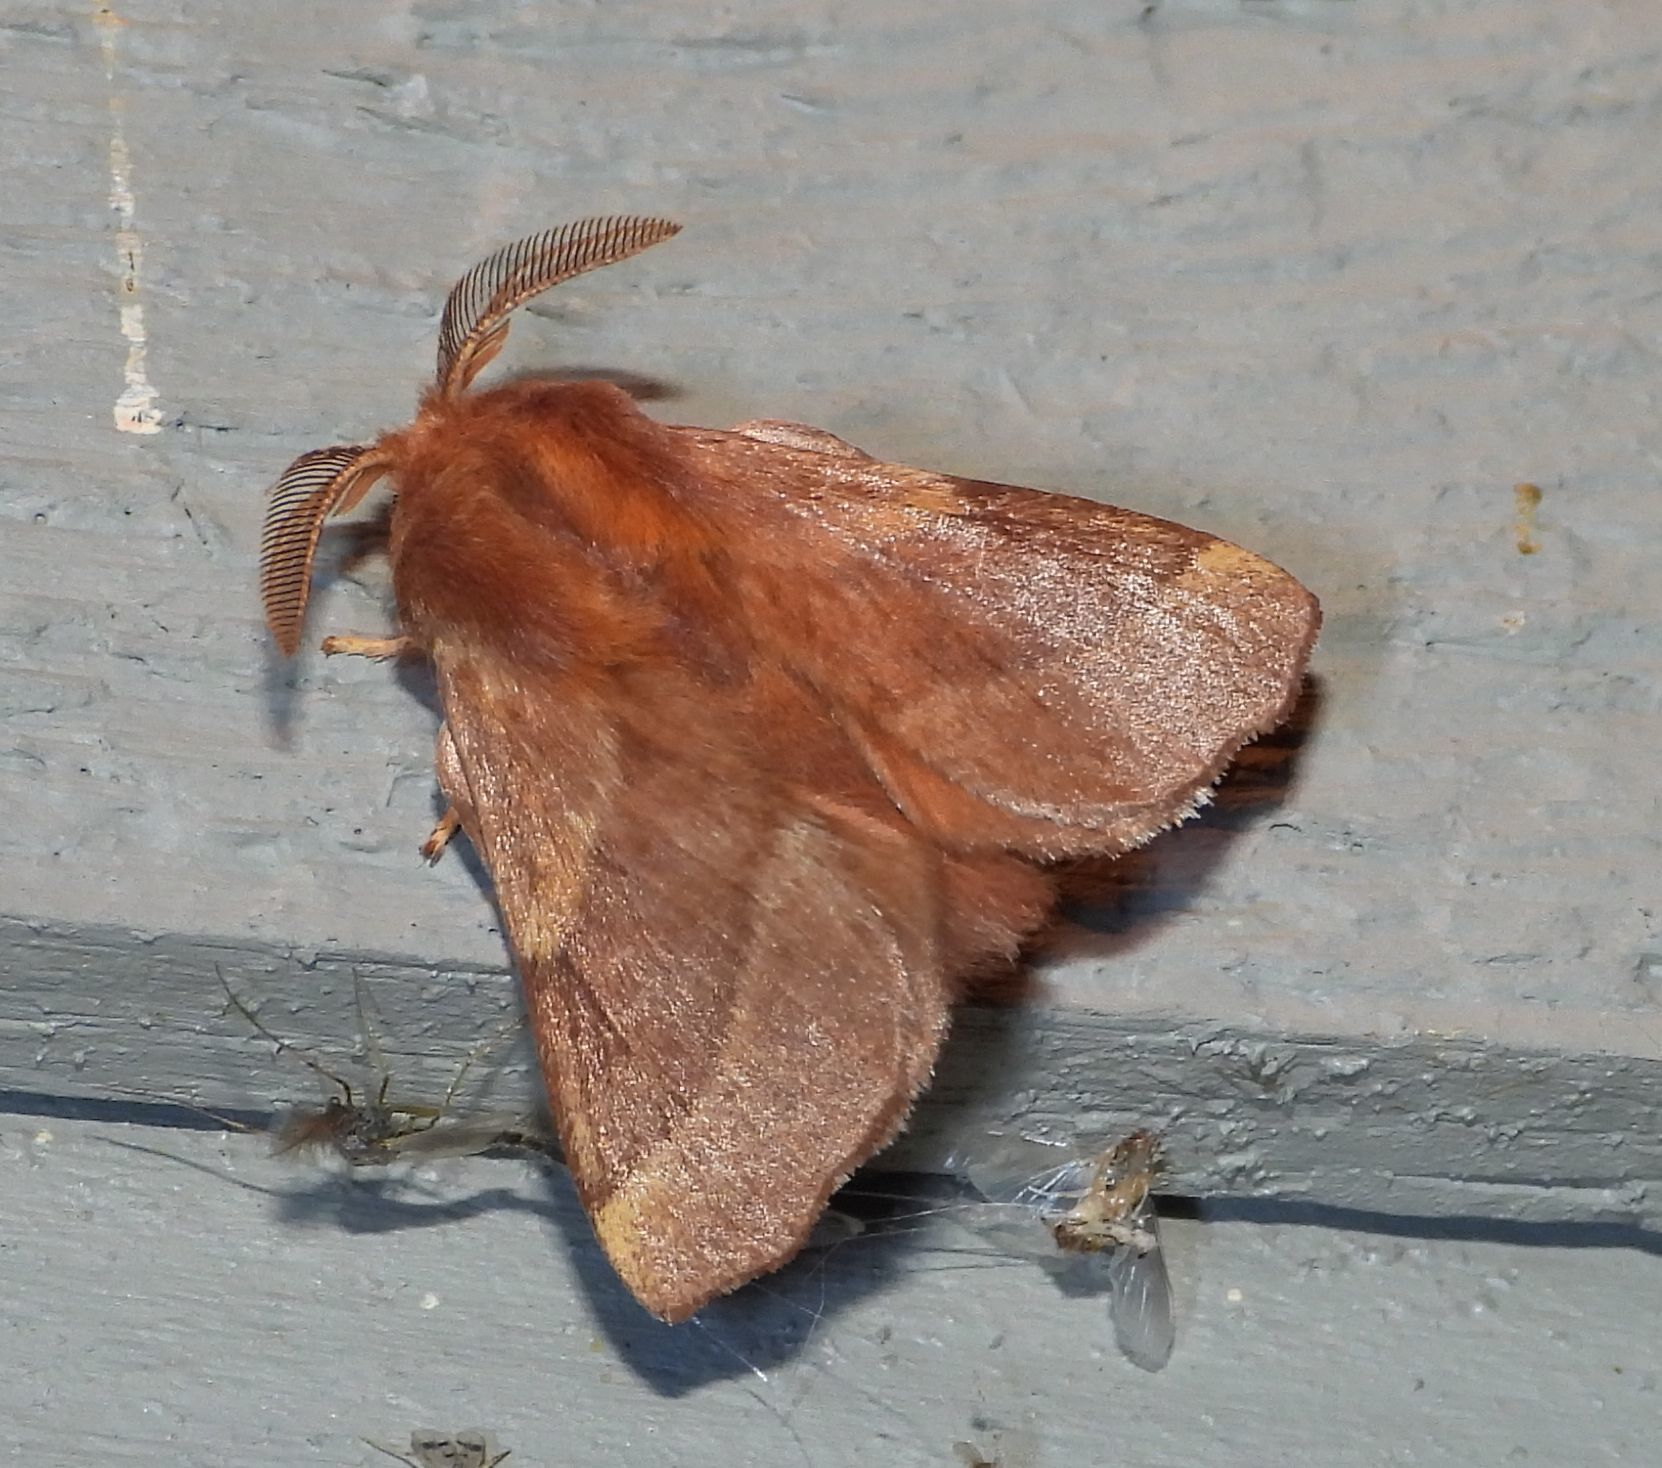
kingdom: Animalia
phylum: Arthropoda
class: Insecta
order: Lepidoptera
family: Lasiocampidae
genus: Malacosoma
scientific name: Malacosoma disstria
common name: Forest tent caterpillar
